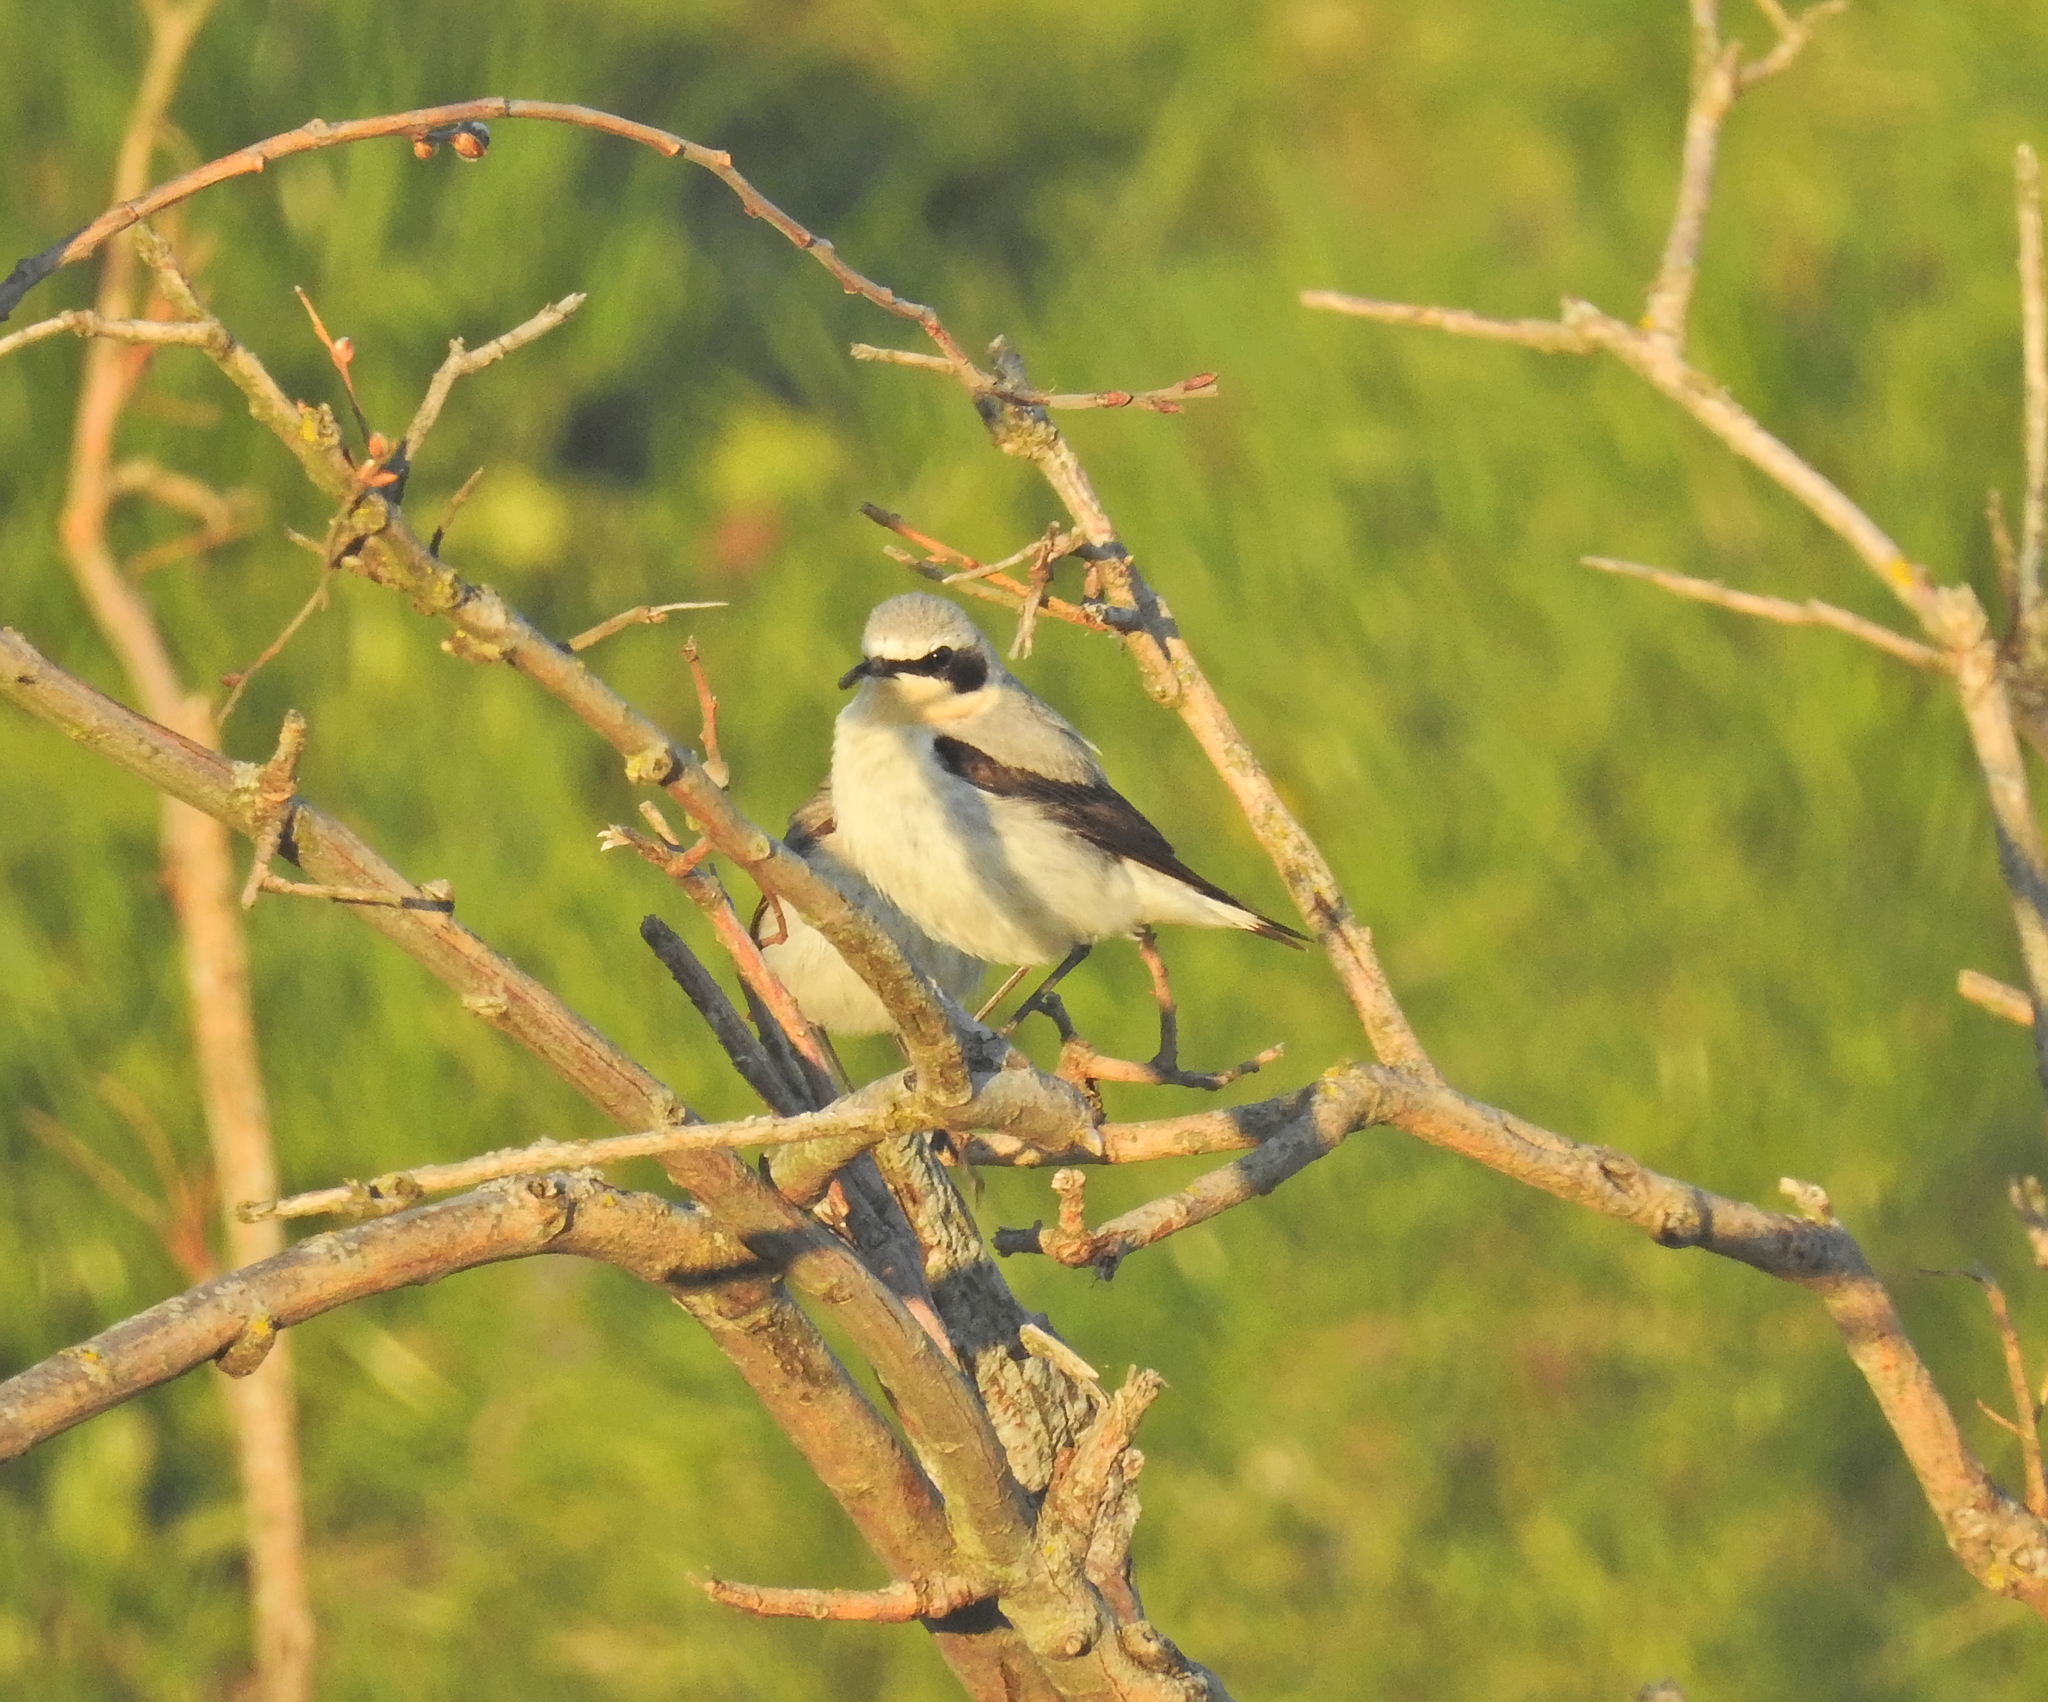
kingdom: Animalia
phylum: Chordata
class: Aves
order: Passeriformes
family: Muscicapidae
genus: Oenanthe
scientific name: Oenanthe oenanthe
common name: Northern wheatear
